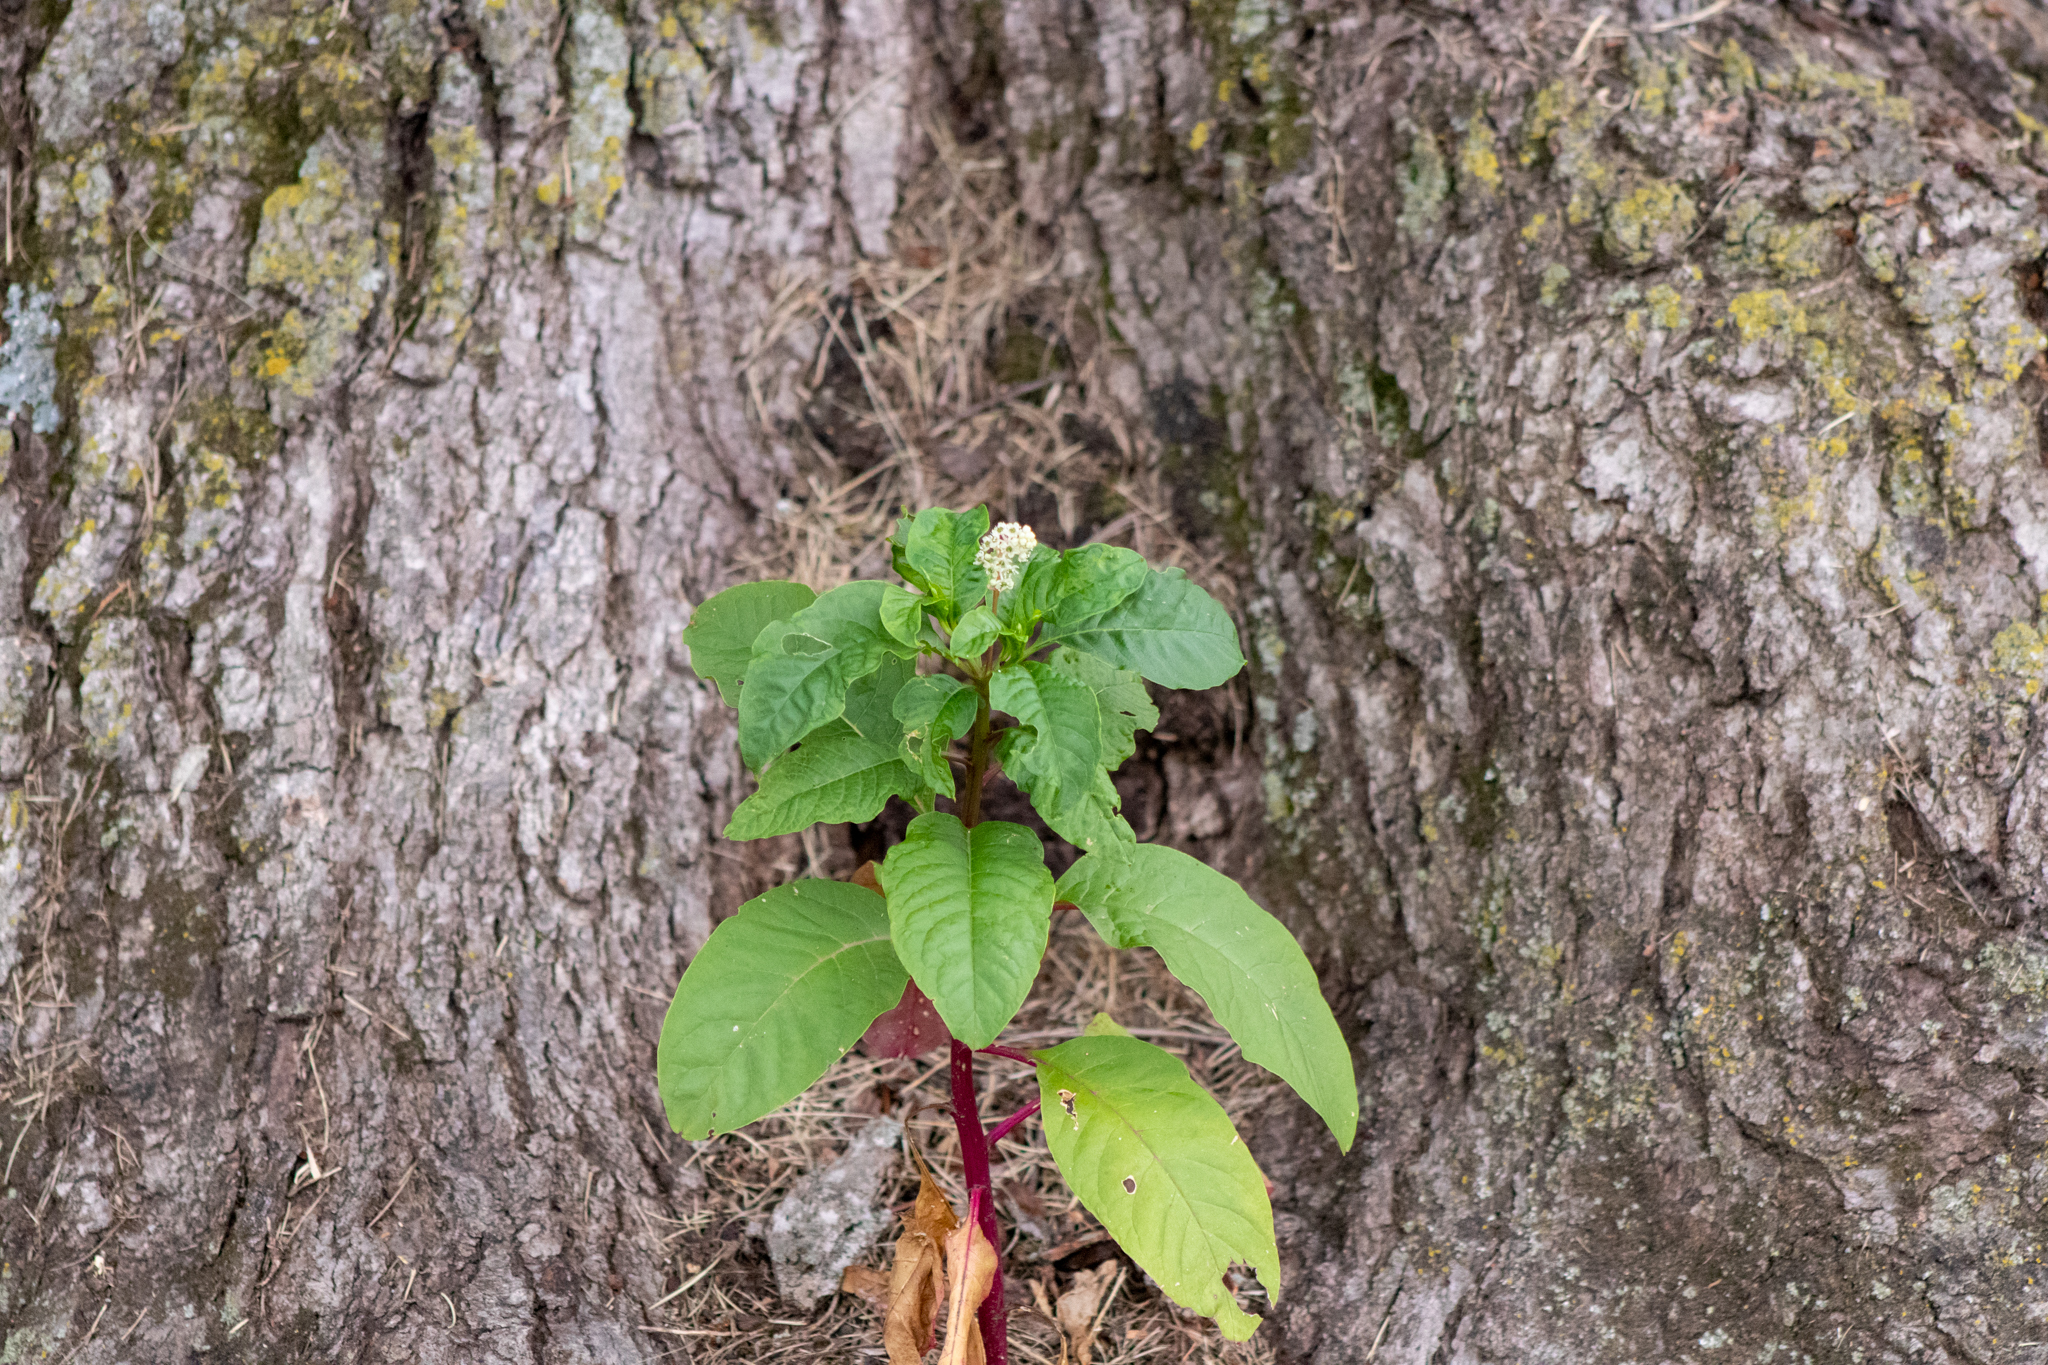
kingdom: Plantae
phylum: Tracheophyta
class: Magnoliopsida
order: Caryophyllales
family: Phytolaccaceae
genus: Phytolacca
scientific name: Phytolacca americana
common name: American pokeweed
